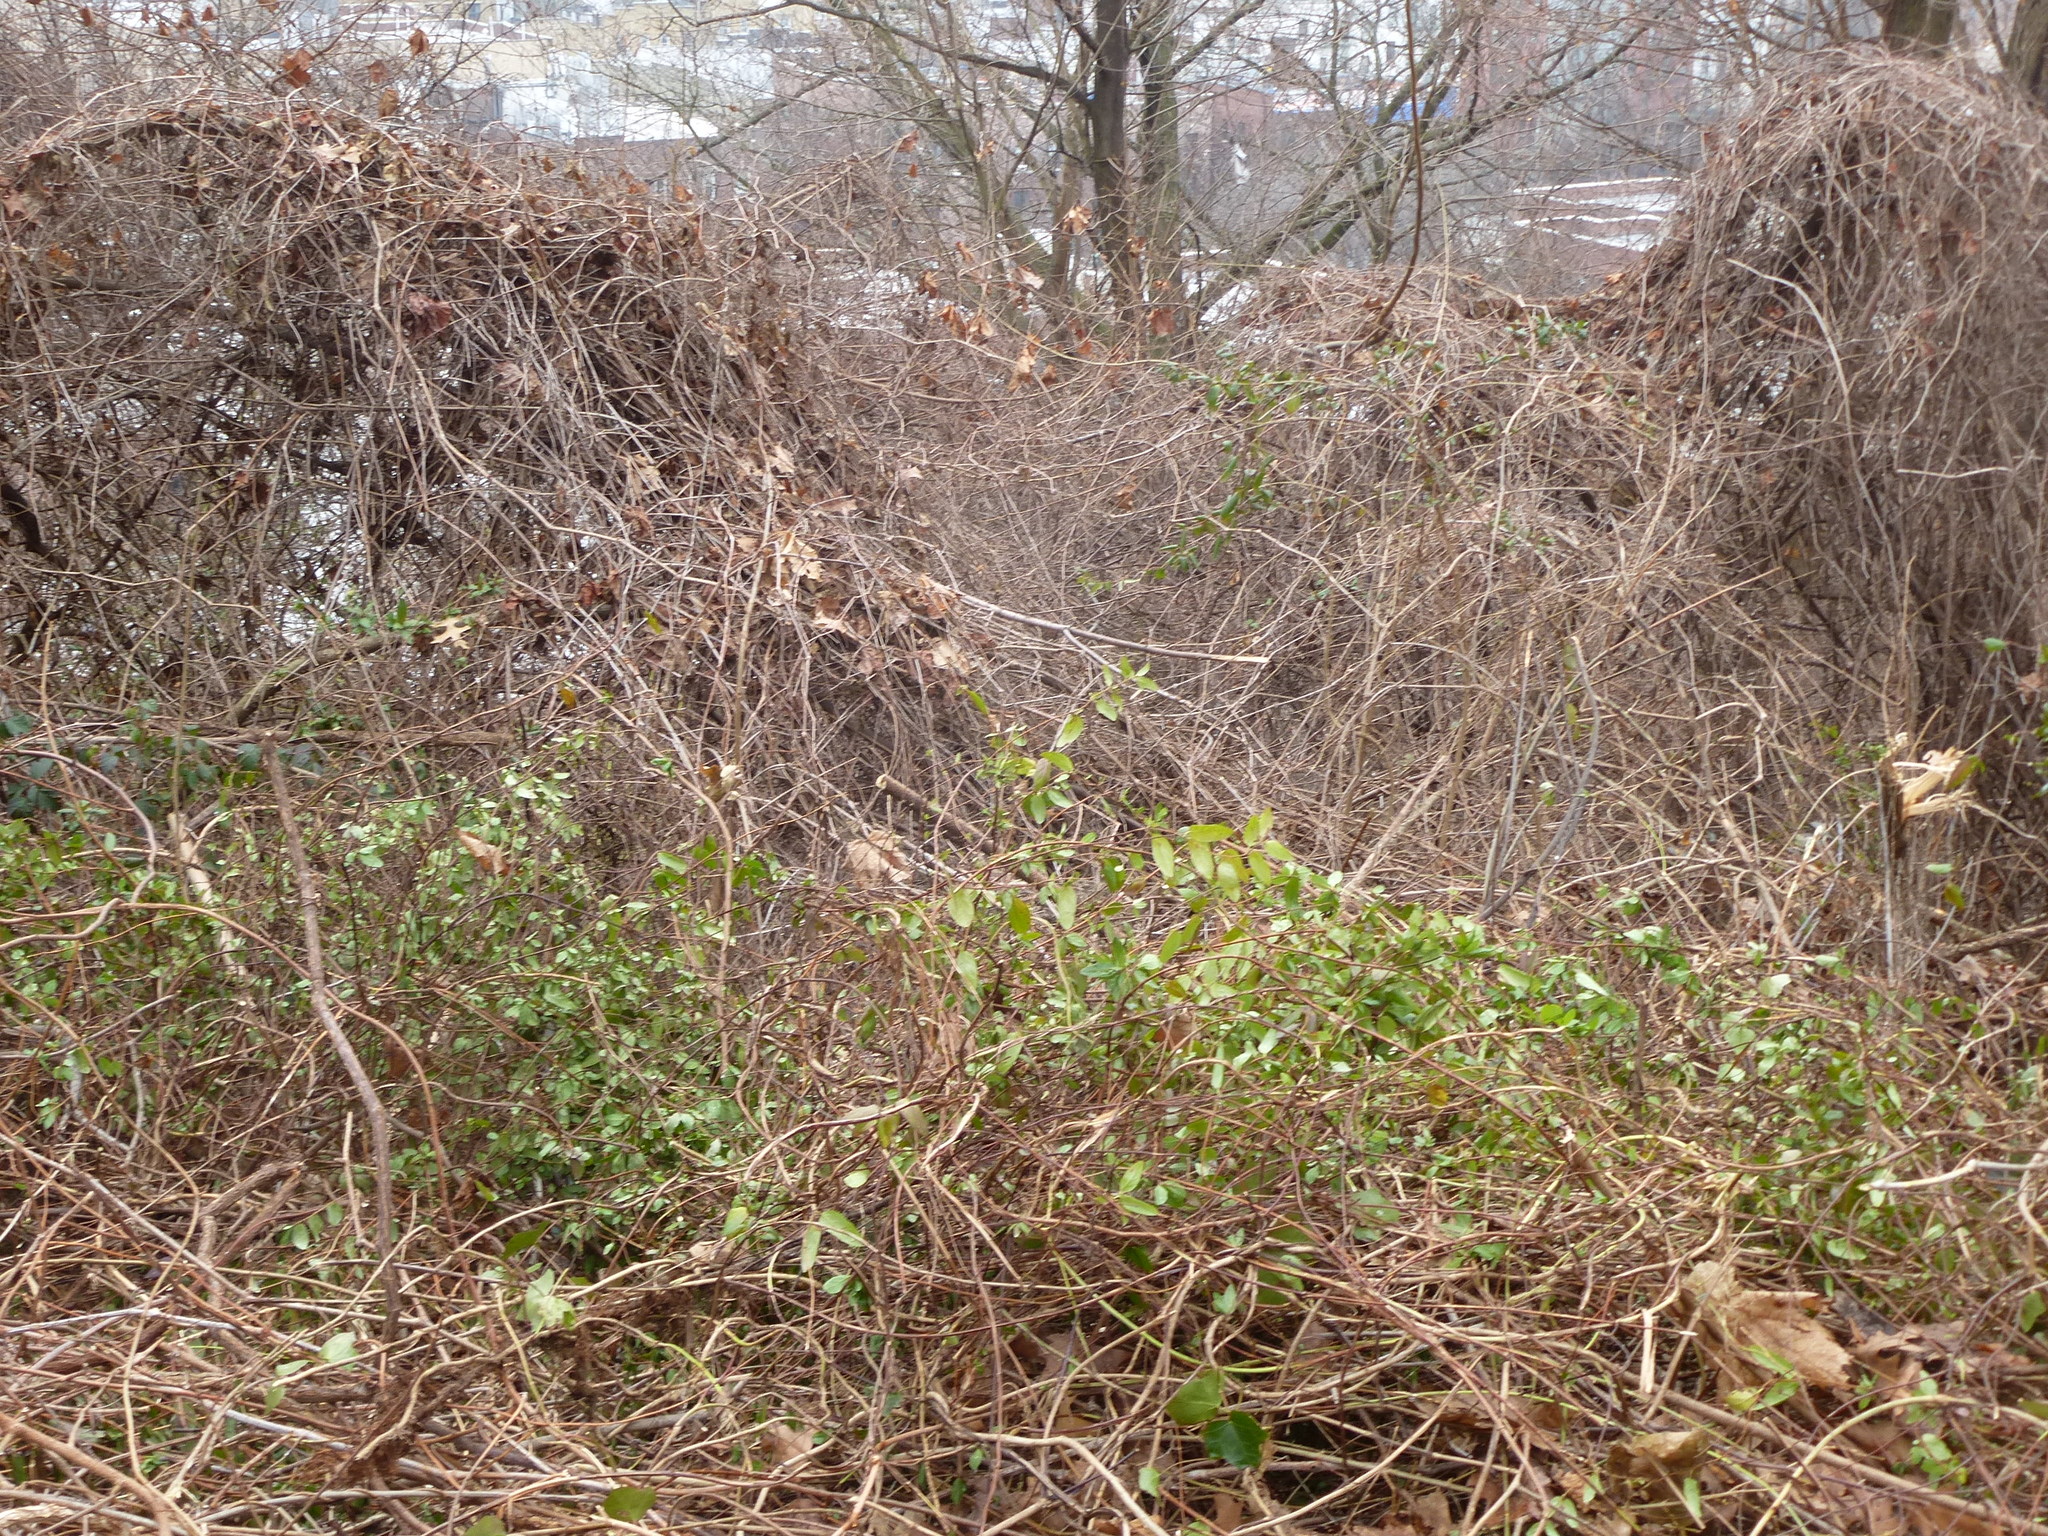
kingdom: Plantae
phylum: Tracheophyta
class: Magnoliopsida
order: Dipsacales
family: Caprifoliaceae
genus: Lonicera
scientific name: Lonicera japonica
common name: Japanese honeysuckle
